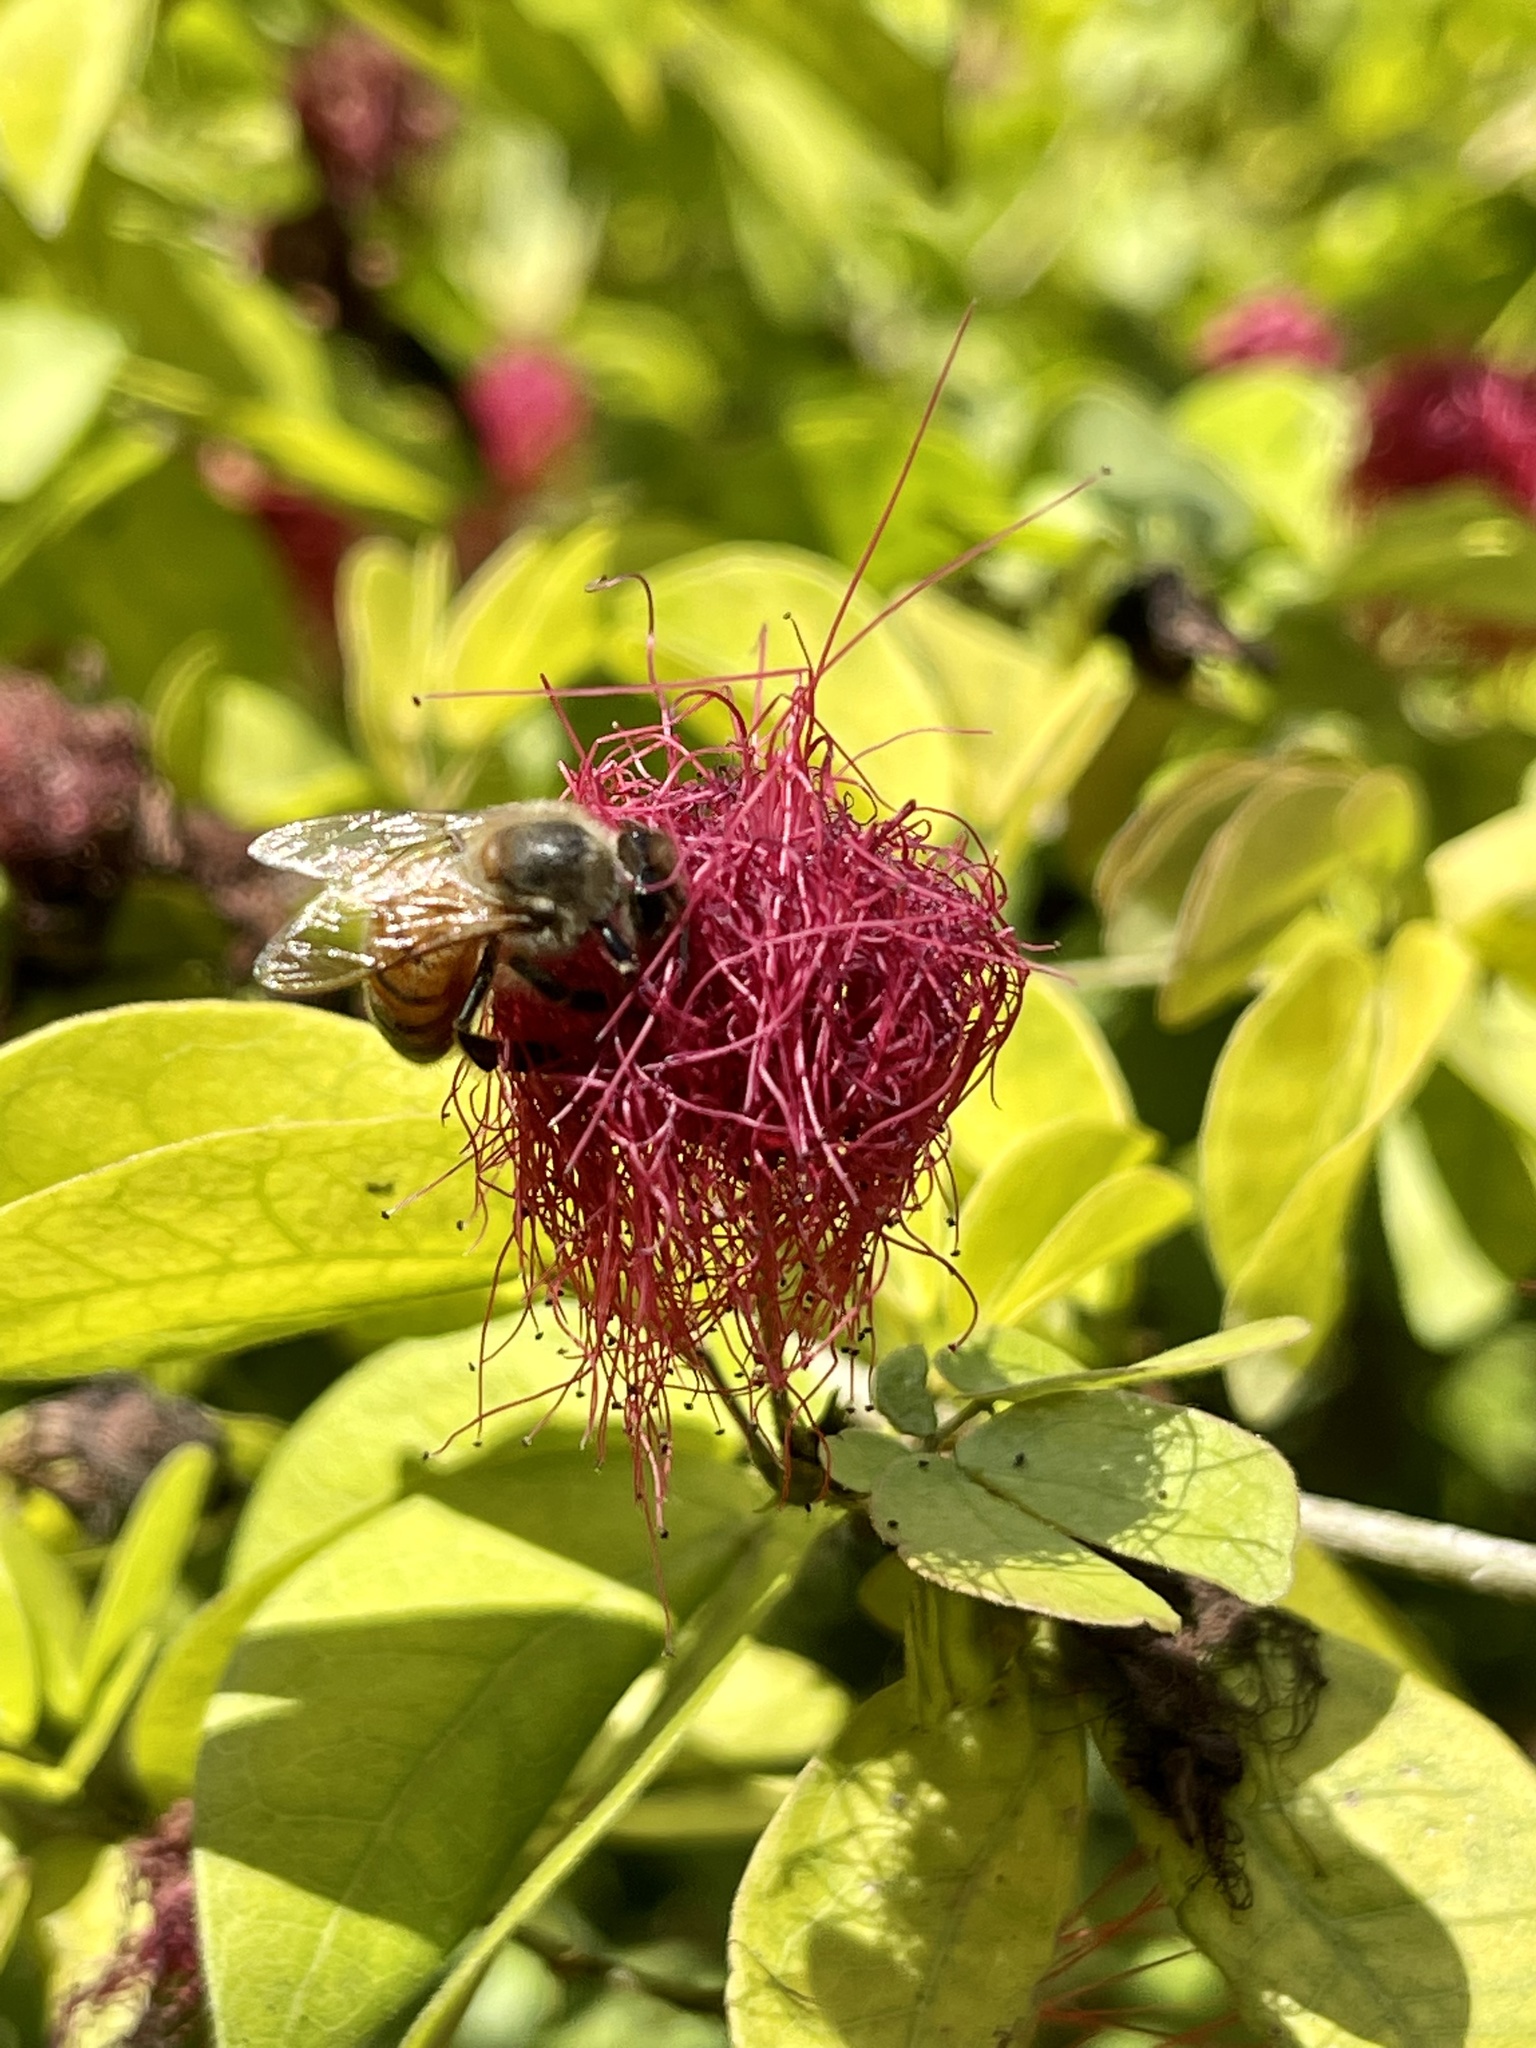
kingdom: Animalia
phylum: Arthropoda
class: Insecta
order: Hymenoptera
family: Apidae
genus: Apis
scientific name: Apis mellifera
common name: Honey bee
